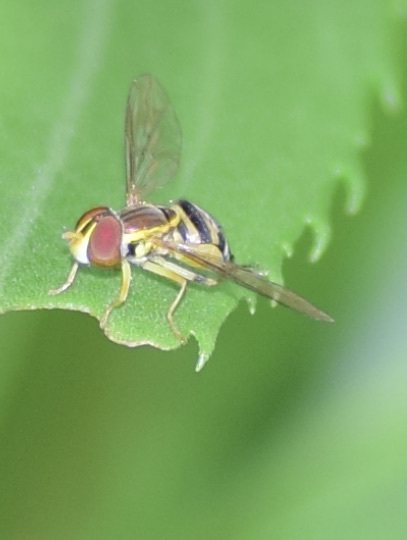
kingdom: Animalia
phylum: Arthropoda
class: Insecta
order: Diptera
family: Syrphidae
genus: Toxomerus
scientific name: Toxomerus geminatus
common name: Eastern calligrapher
